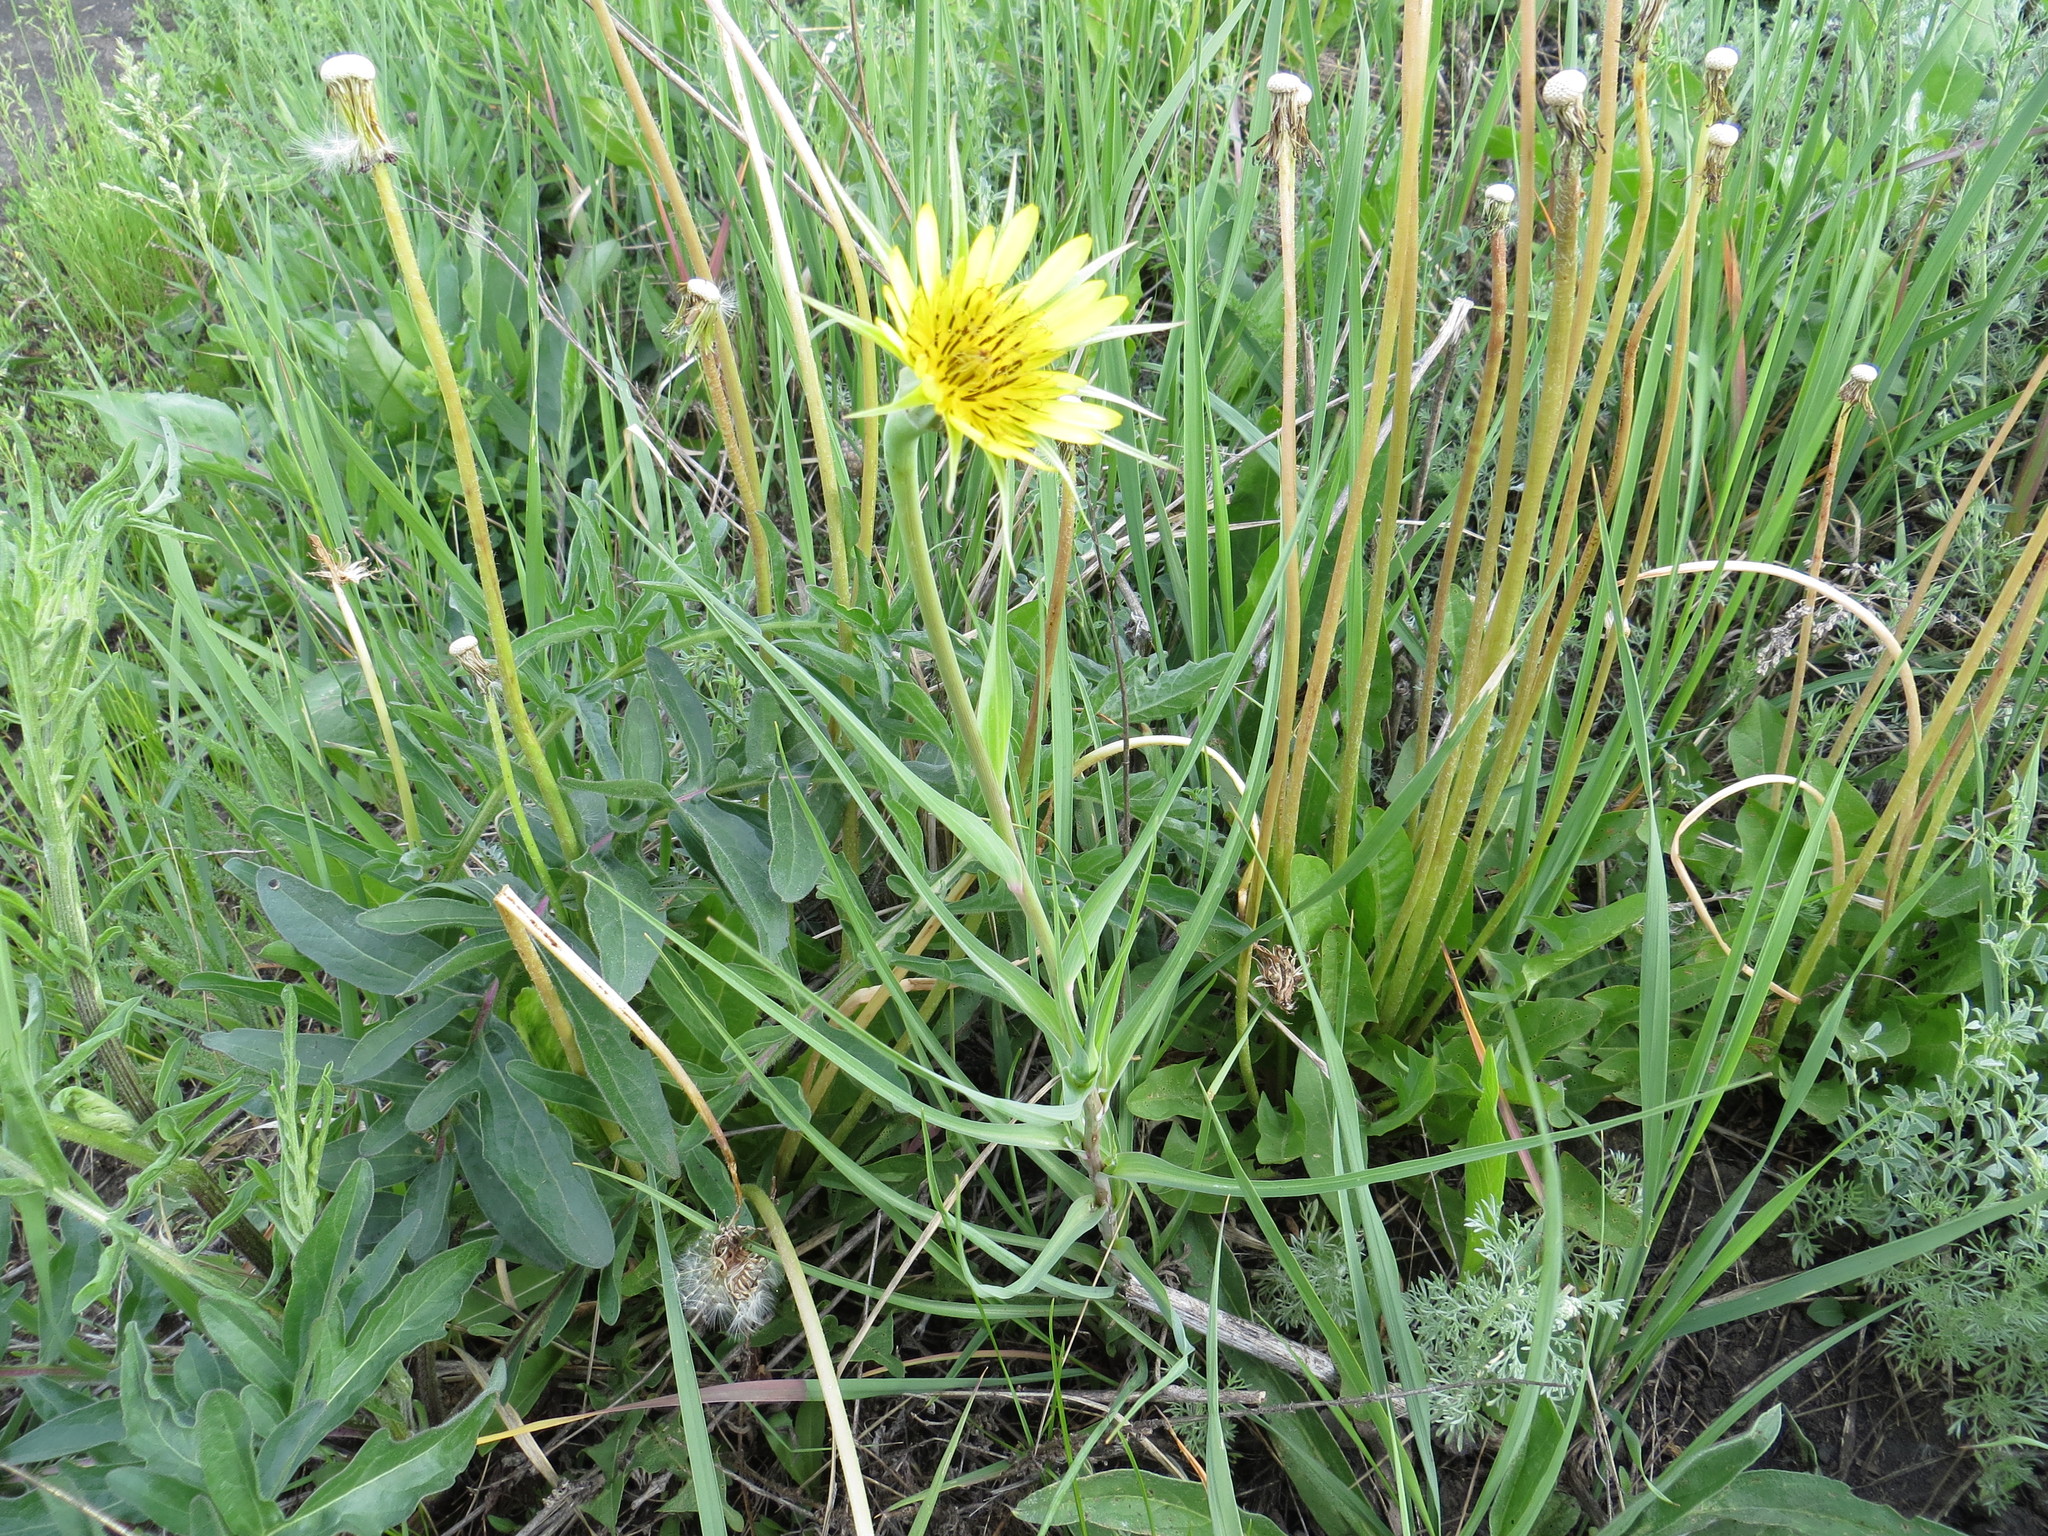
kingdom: Plantae
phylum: Tracheophyta
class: Magnoliopsida
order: Asterales
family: Asteraceae
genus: Tragopogon
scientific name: Tragopogon dubius
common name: Yellow salsify
